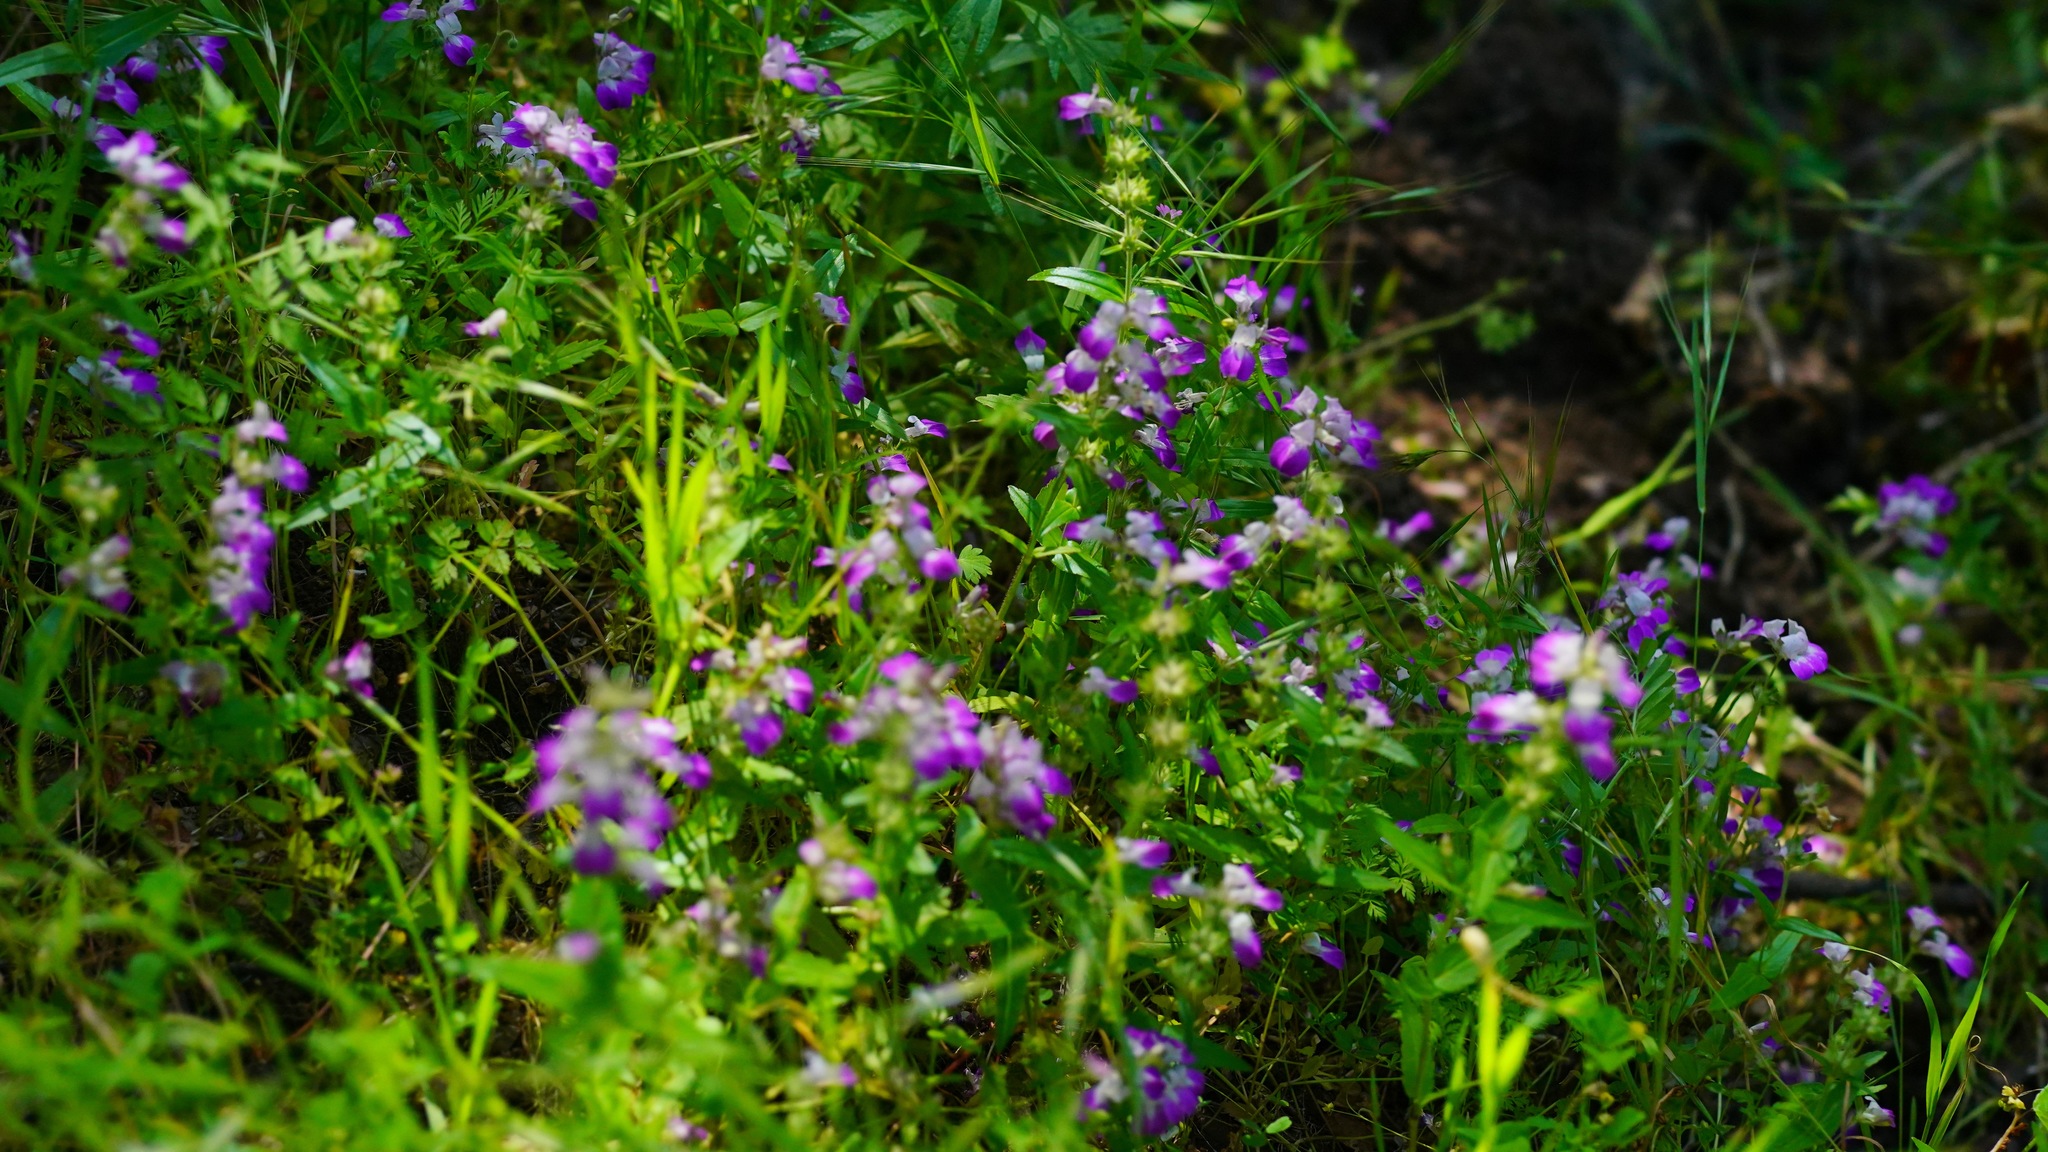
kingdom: Plantae
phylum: Tracheophyta
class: Magnoliopsida
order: Lamiales
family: Plantaginaceae
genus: Collinsia
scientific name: Collinsia heterophylla
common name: Chinese-houses
